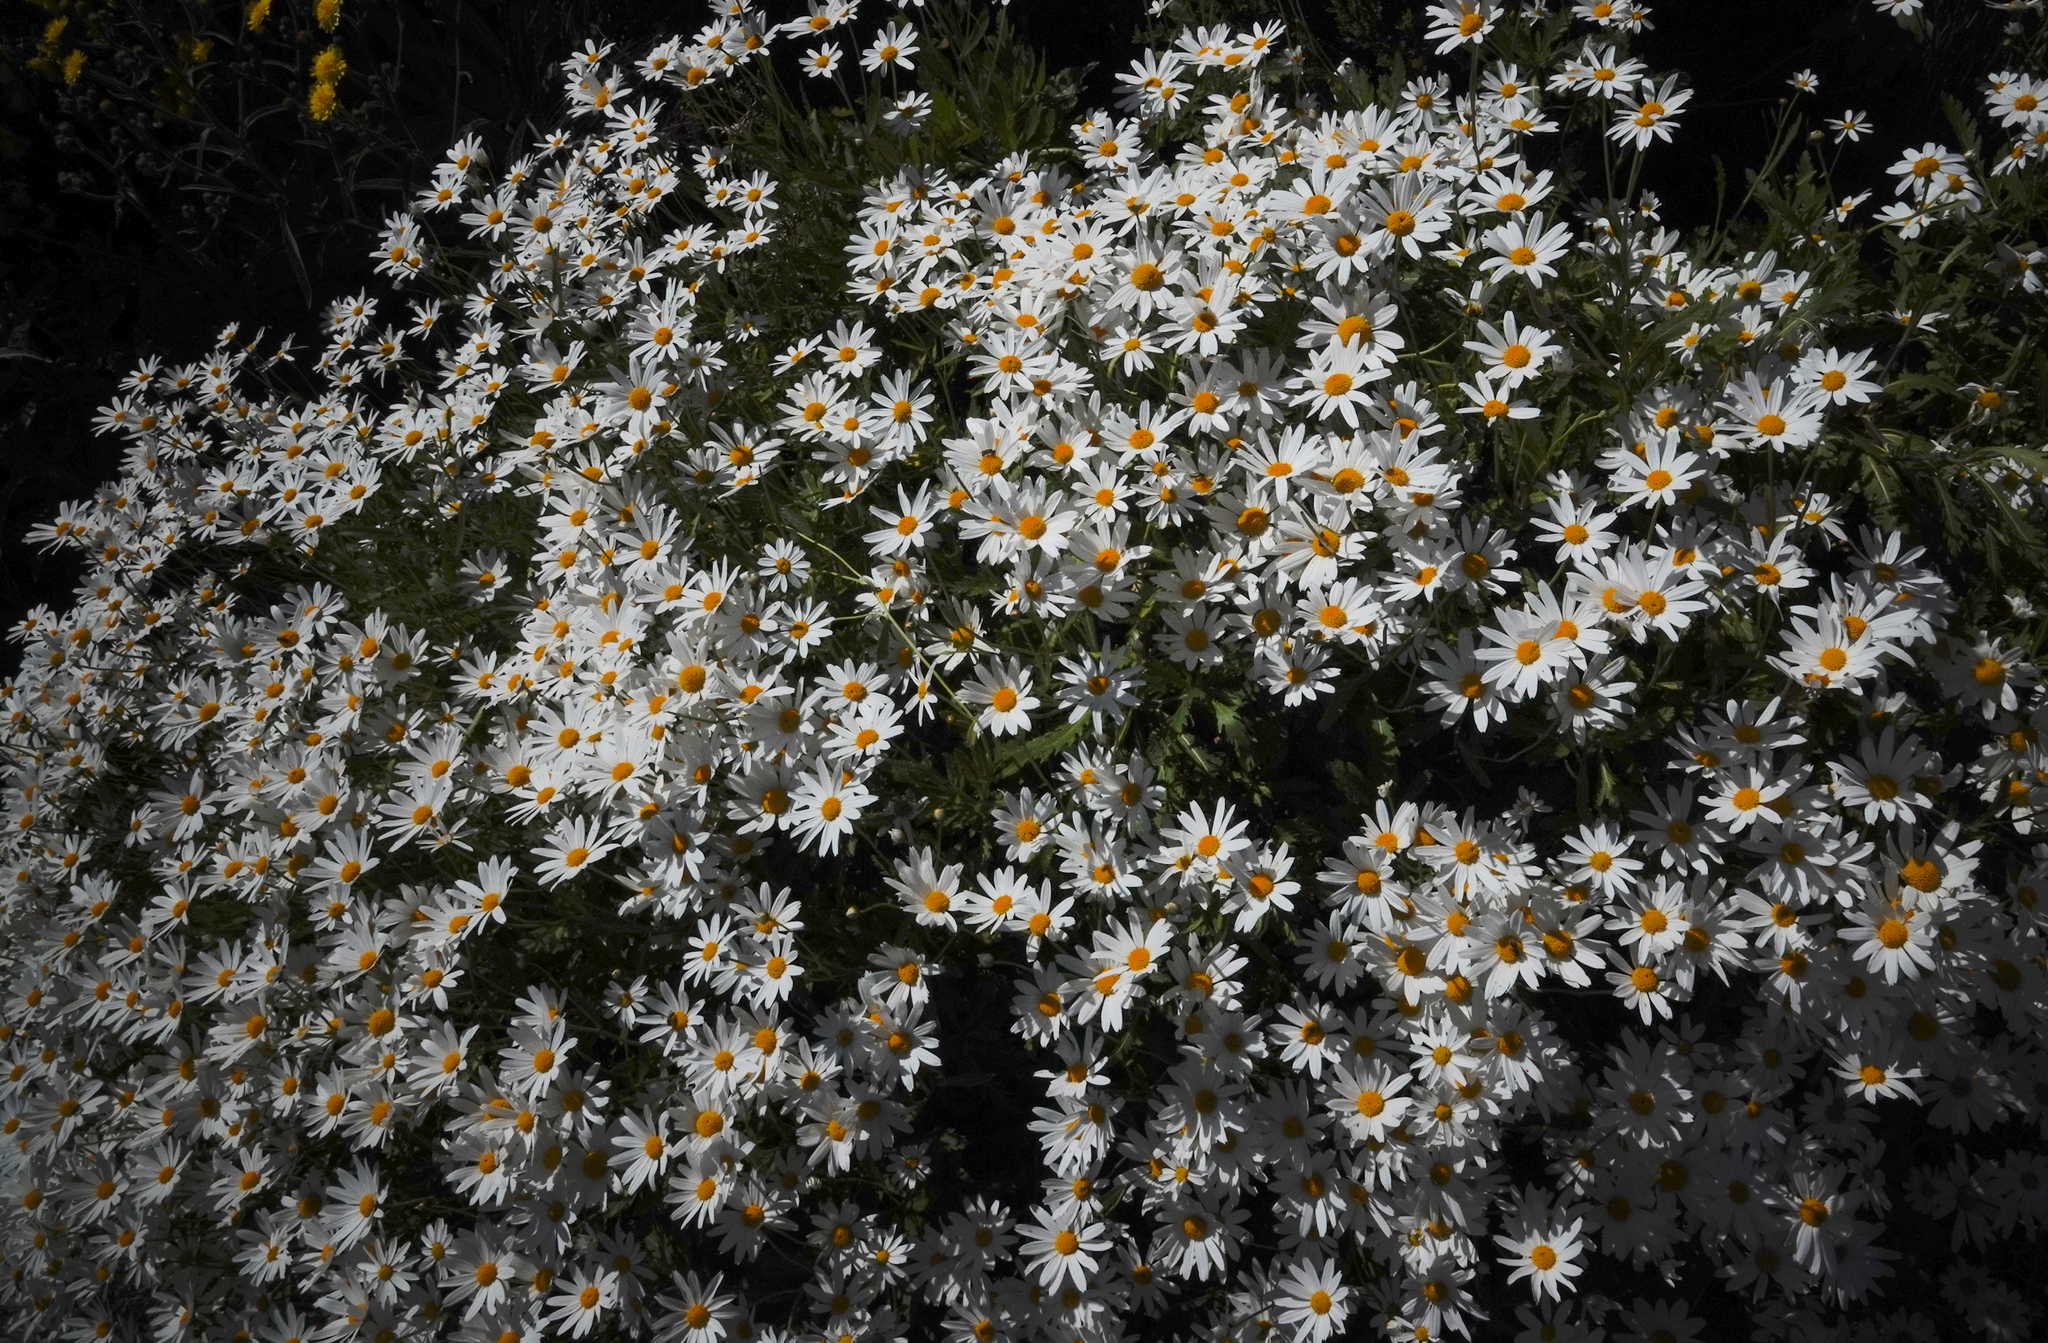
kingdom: Plantae
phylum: Tracheophyta
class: Magnoliopsida
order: Asterales
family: Asteraceae
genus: Argyranthemum
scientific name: Argyranthemum pinnatifidum
